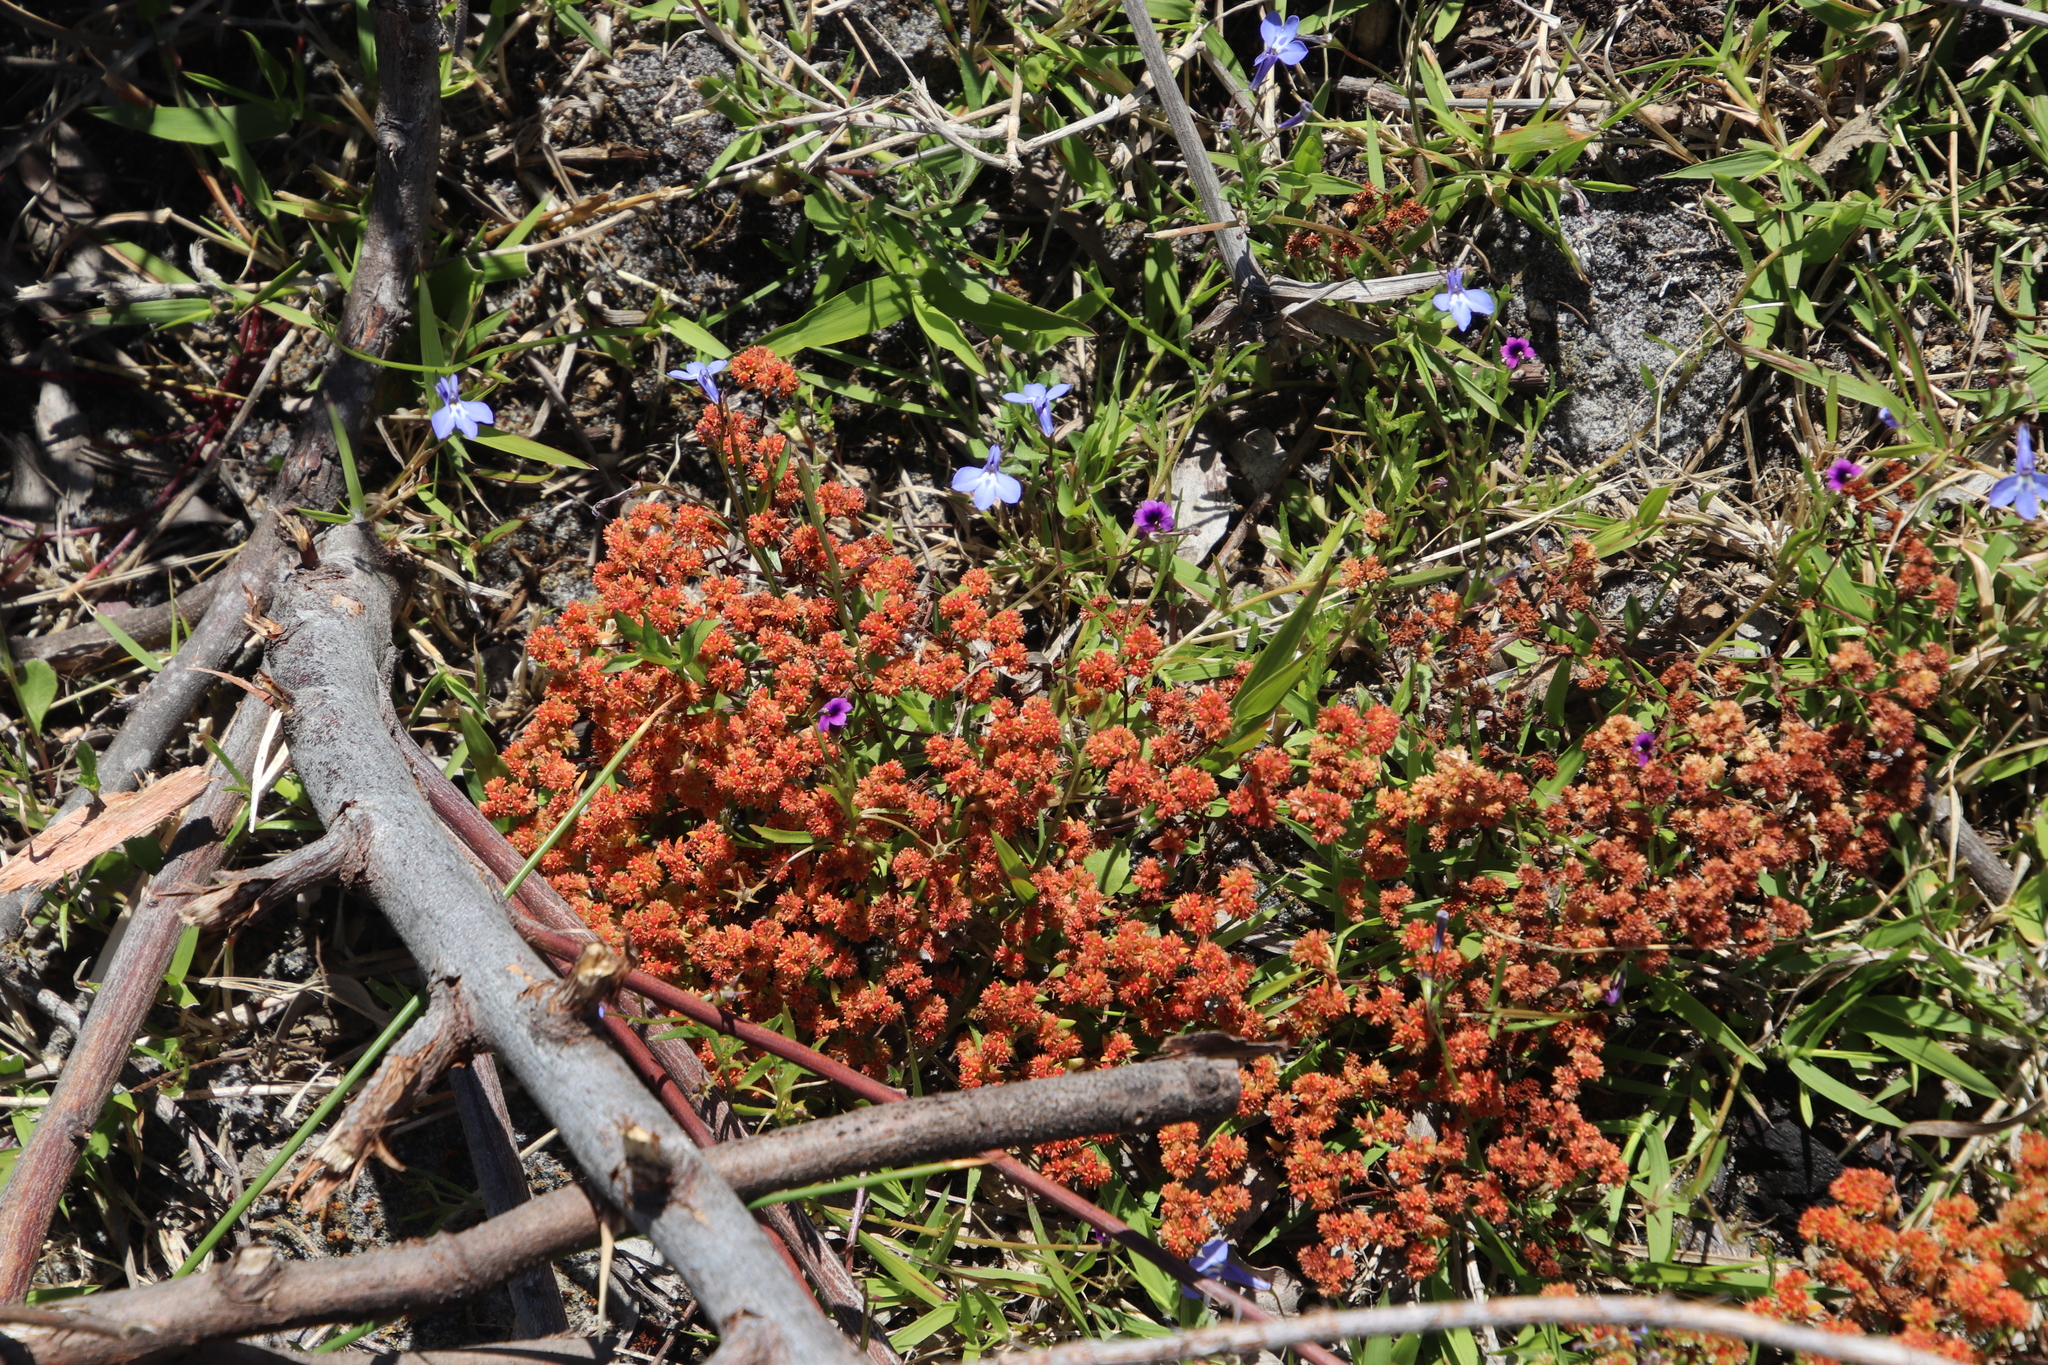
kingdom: Plantae
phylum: Tracheophyta
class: Magnoliopsida
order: Saxifragales
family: Crassulaceae
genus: Crassula
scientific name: Crassula glomerata
